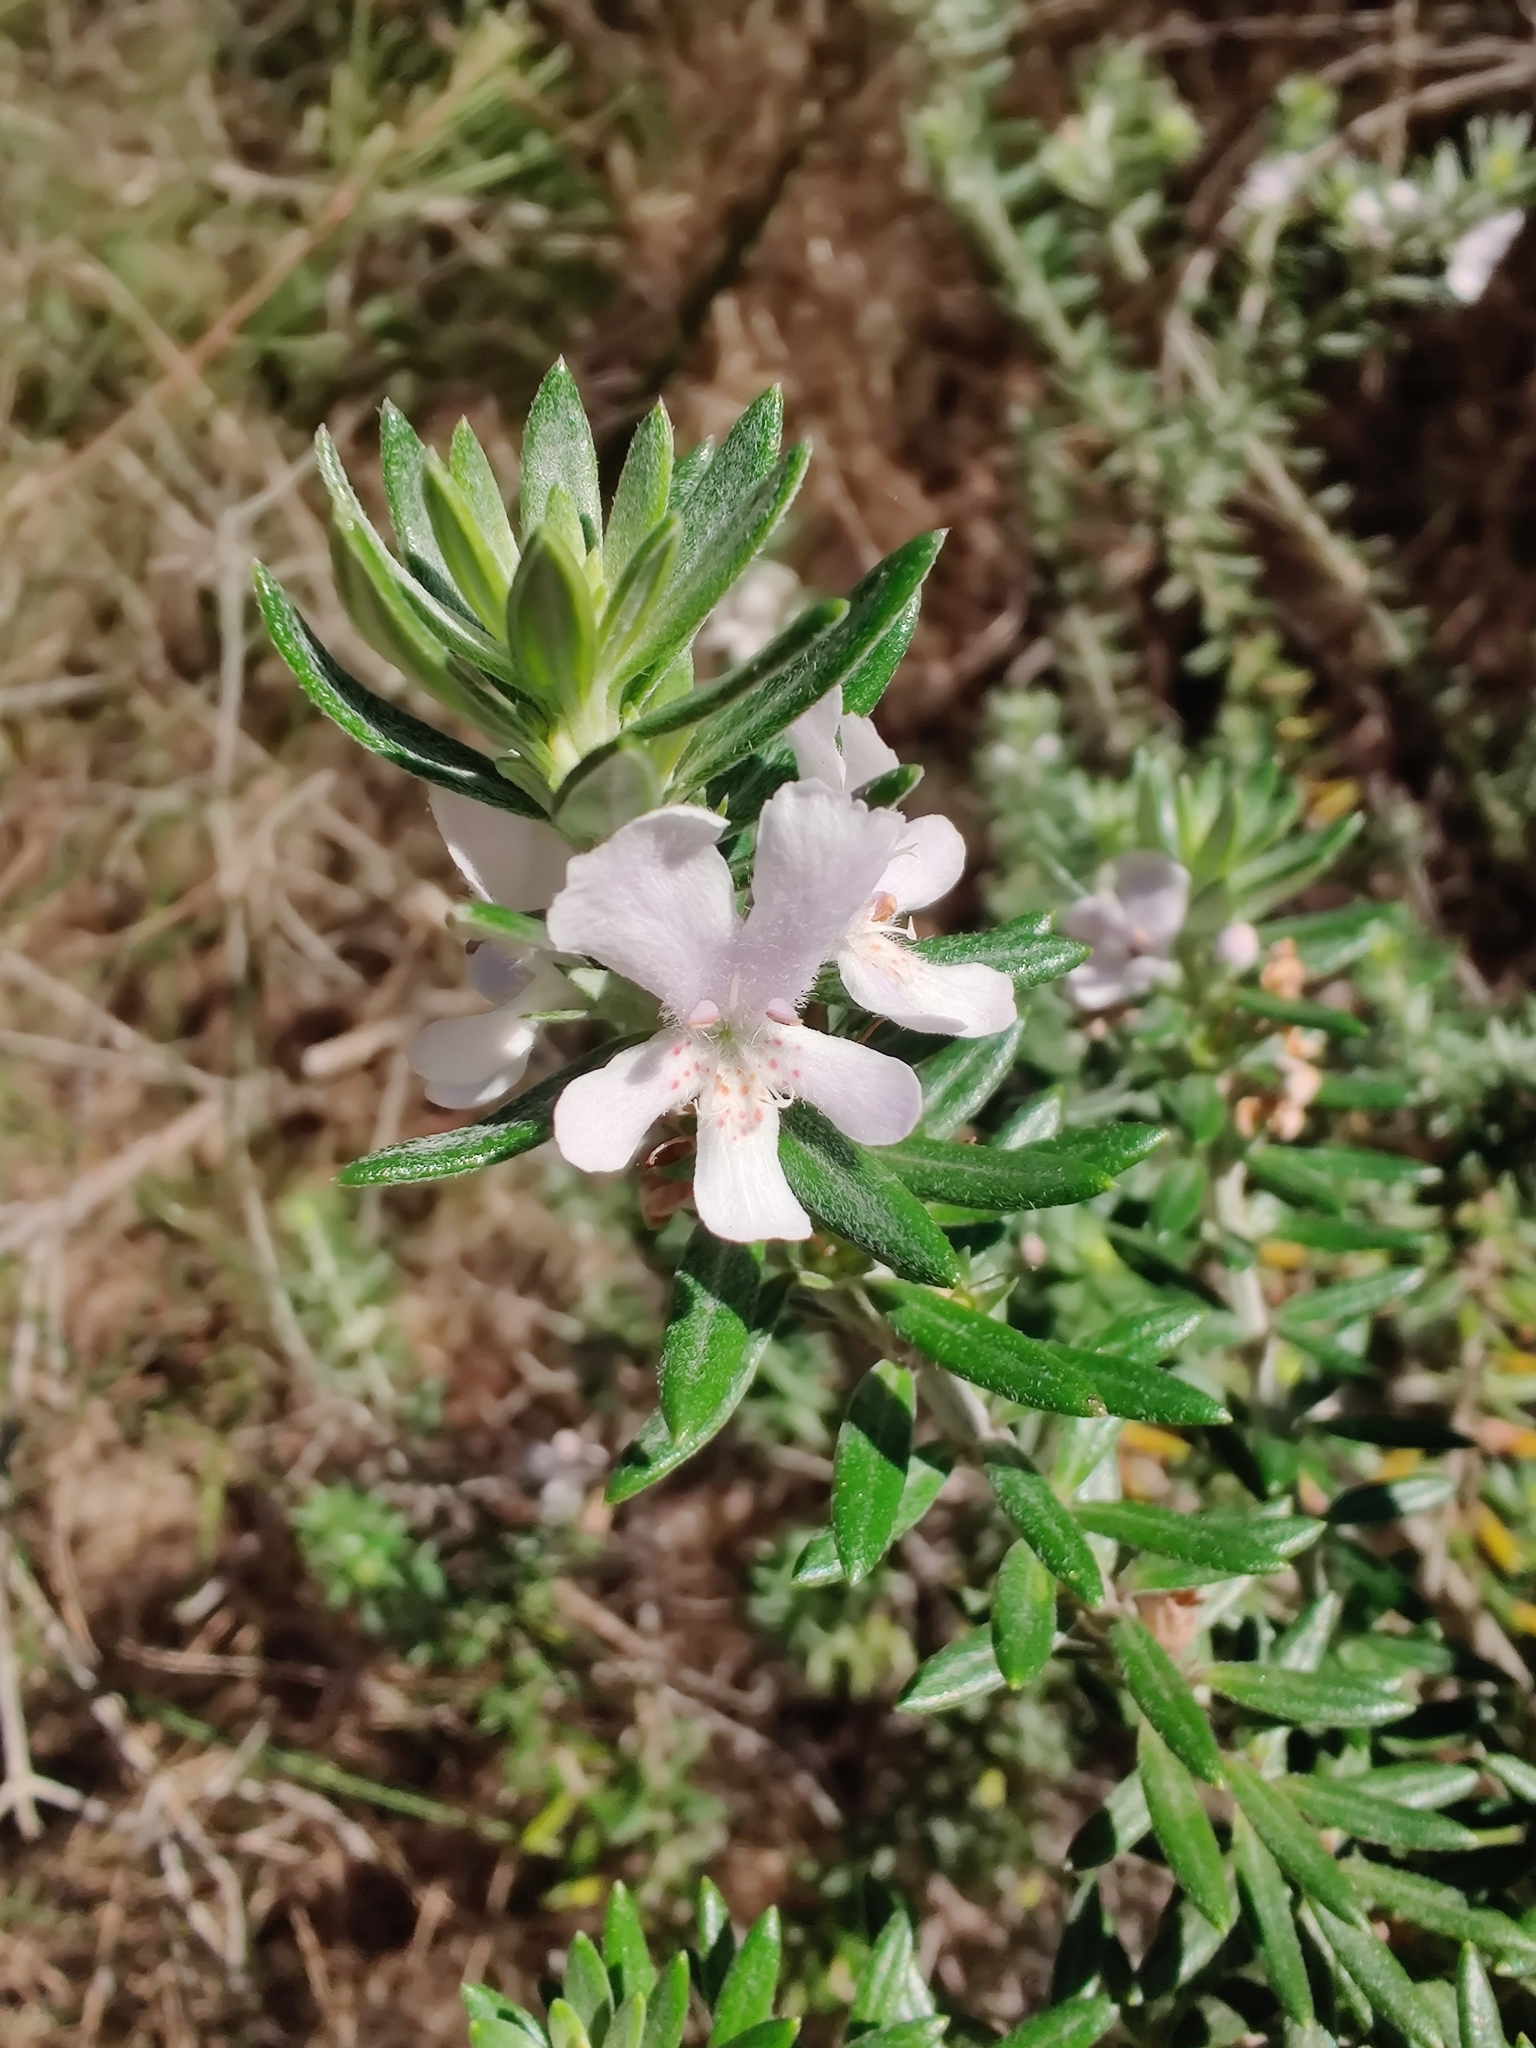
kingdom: Plantae
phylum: Tracheophyta
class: Magnoliopsida
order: Lamiales
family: Lamiaceae
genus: Westringia
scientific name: Westringia fruticosa
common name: Coastal-rosemary
